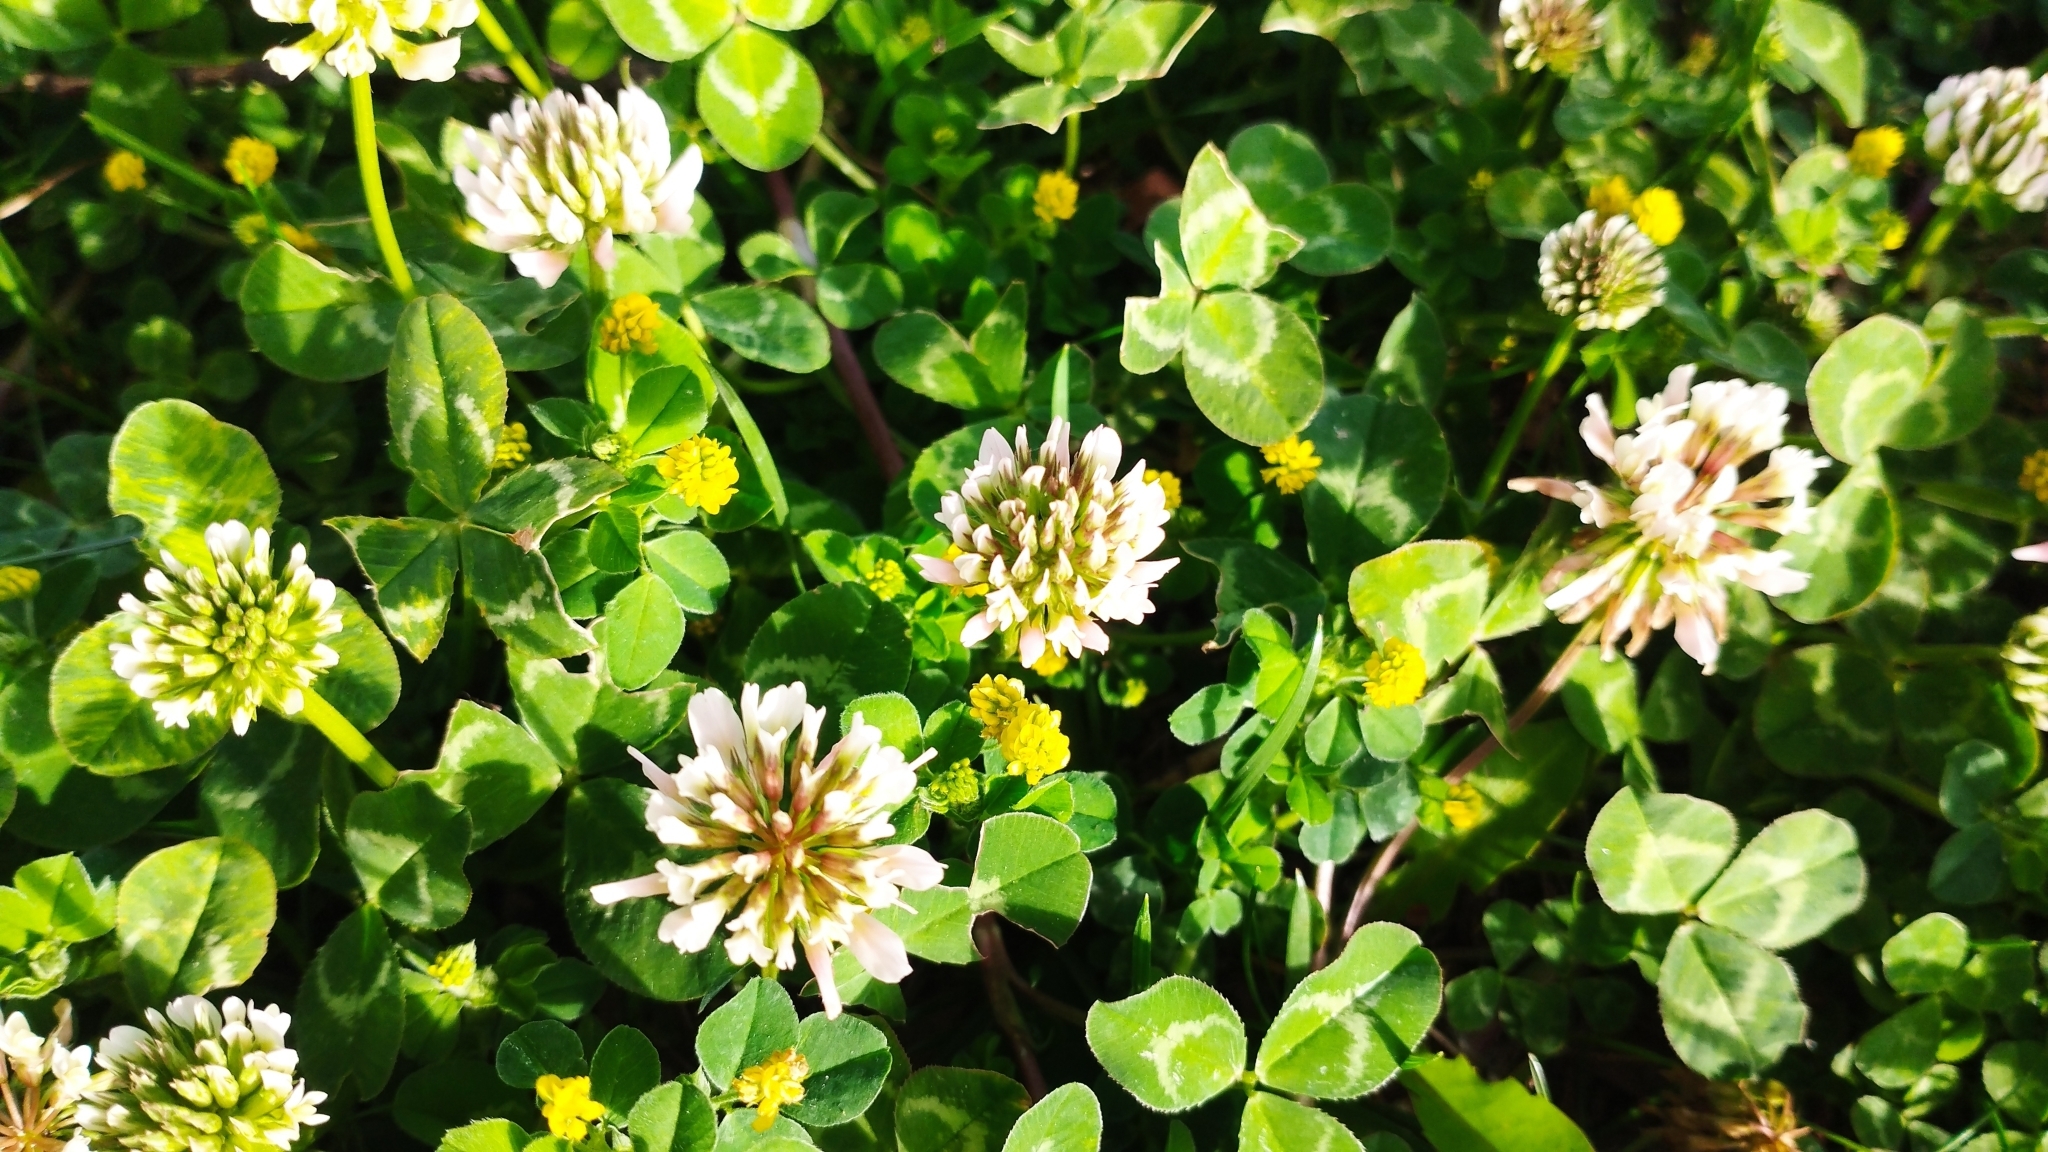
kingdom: Plantae
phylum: Tracheophyta
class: Magnoliopsida
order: Fabales
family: Fabaceae
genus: Trifolium
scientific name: Trifolium repens
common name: White clover
